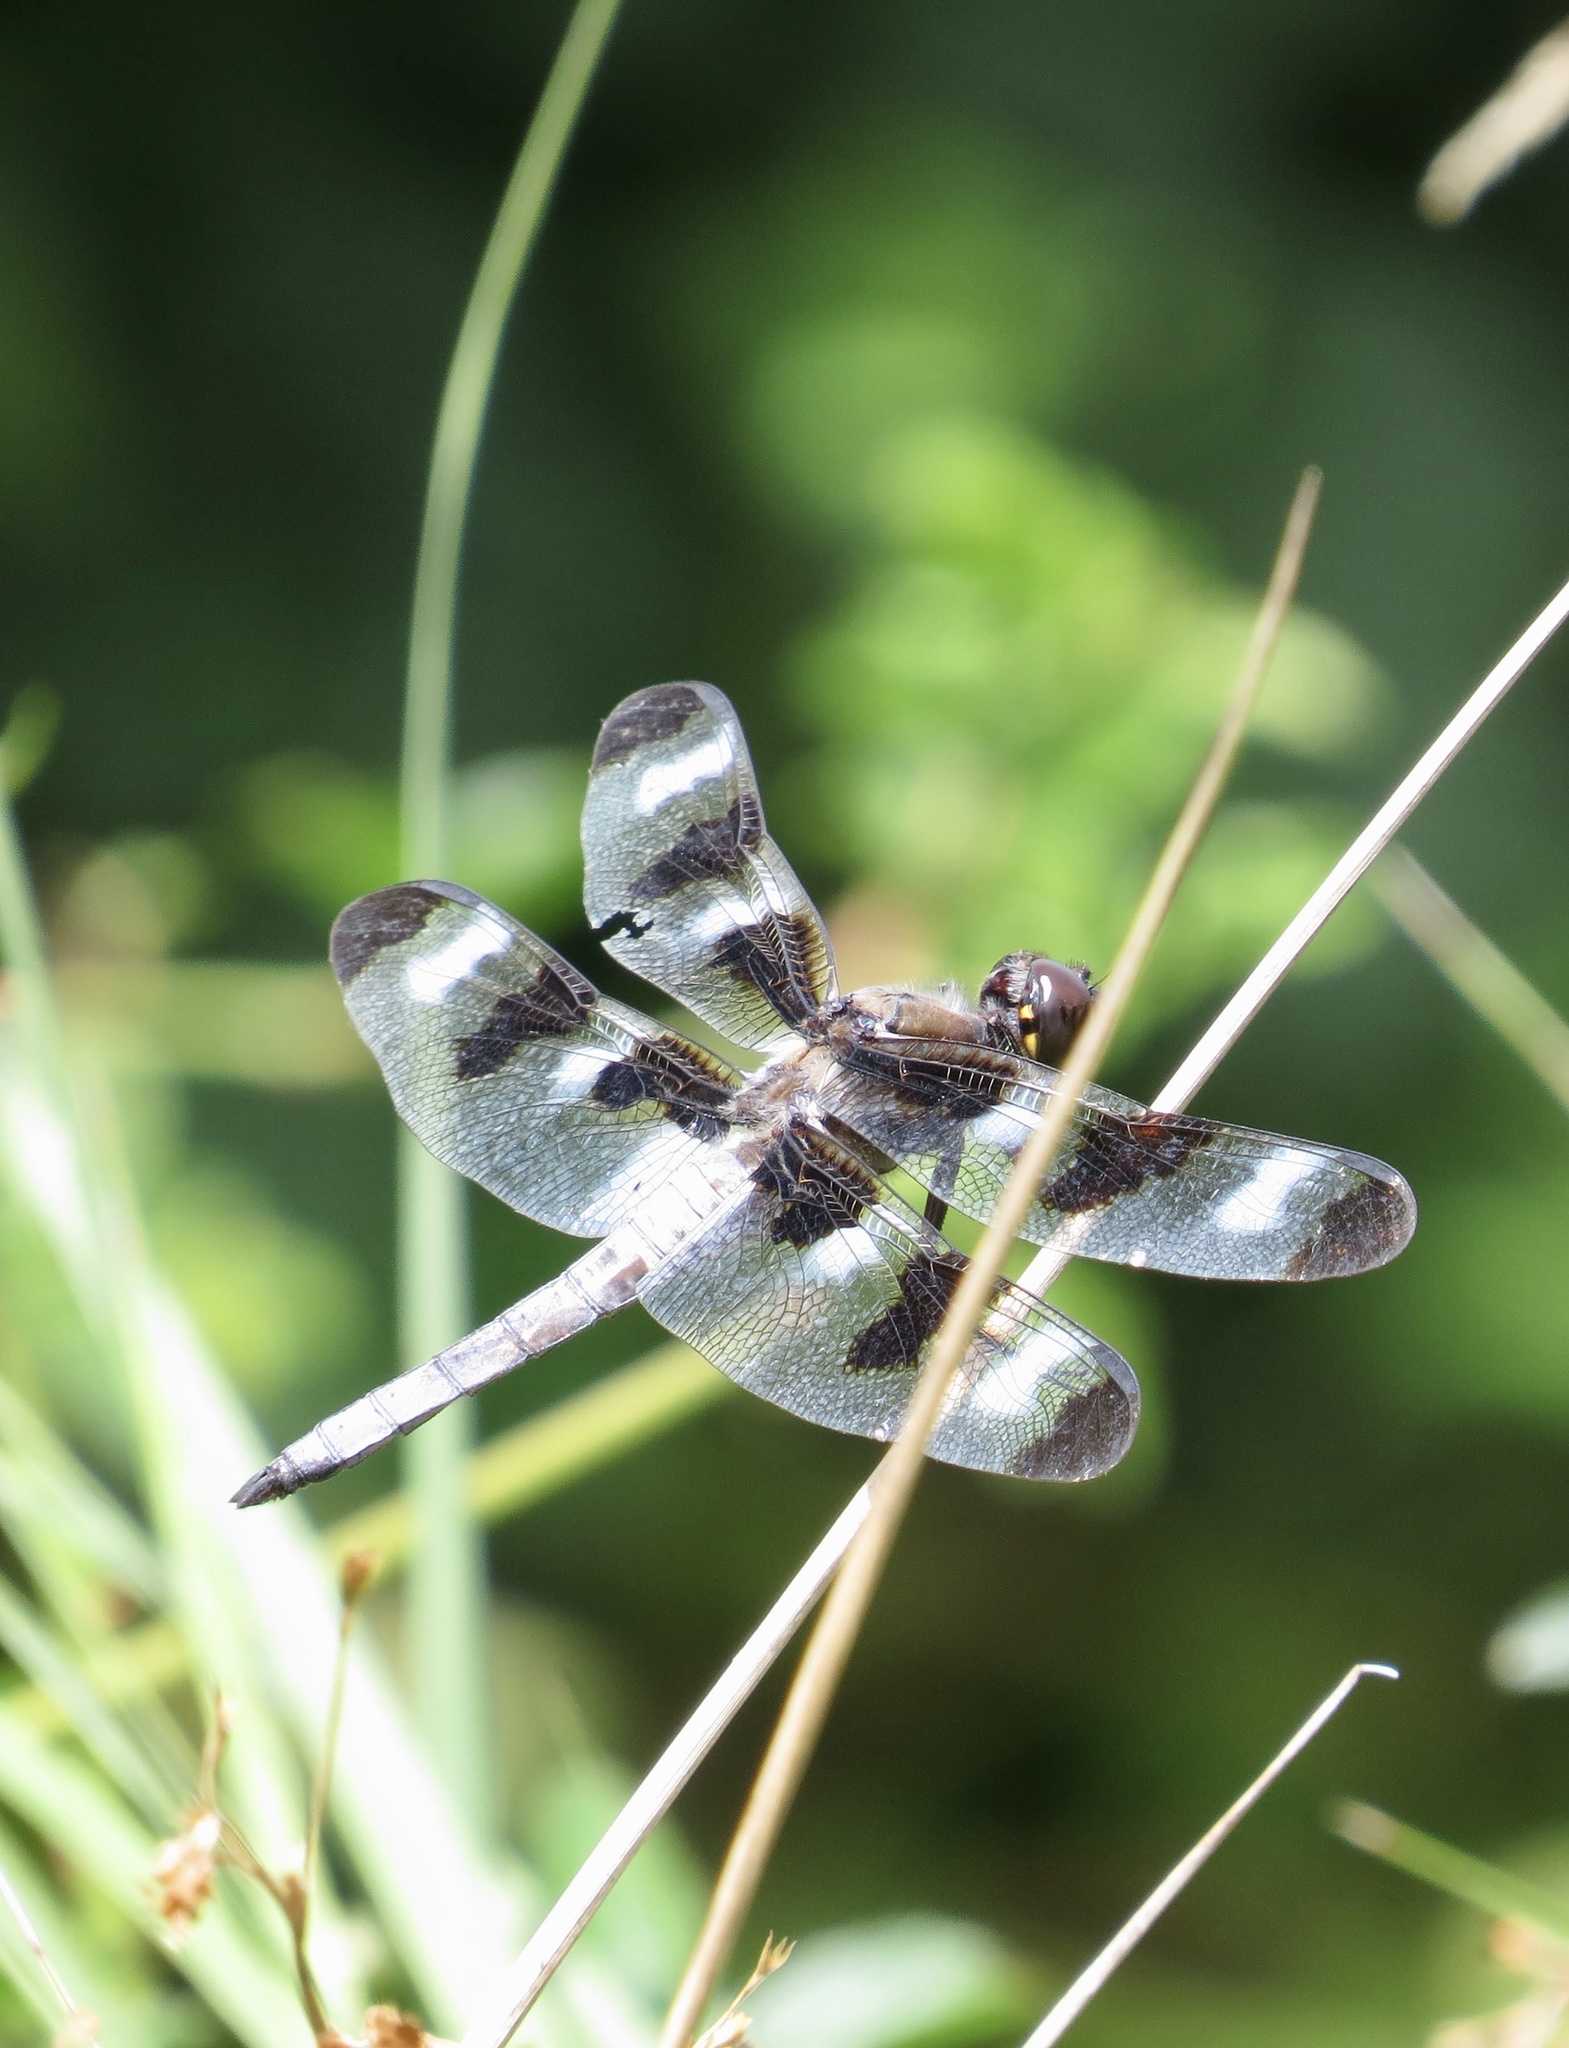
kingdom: Animalia
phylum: Arthropoda
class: Insecta
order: Odonata
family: Libellulidae
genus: Libellula
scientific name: Libellula pulchella
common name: Twelve-spotted skimmer
